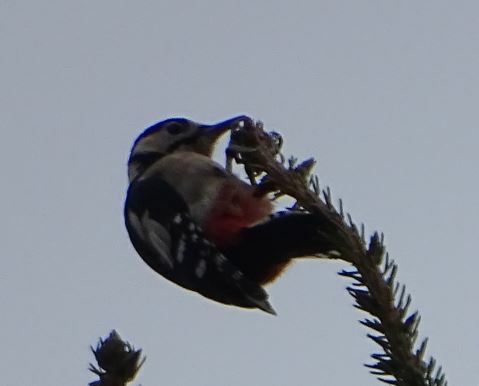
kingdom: Animalia
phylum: Chordata
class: Aves
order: Piciformes
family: Picidae
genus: Dendrocopos
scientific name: Dendrocopos major
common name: Great spotted woodpecker
